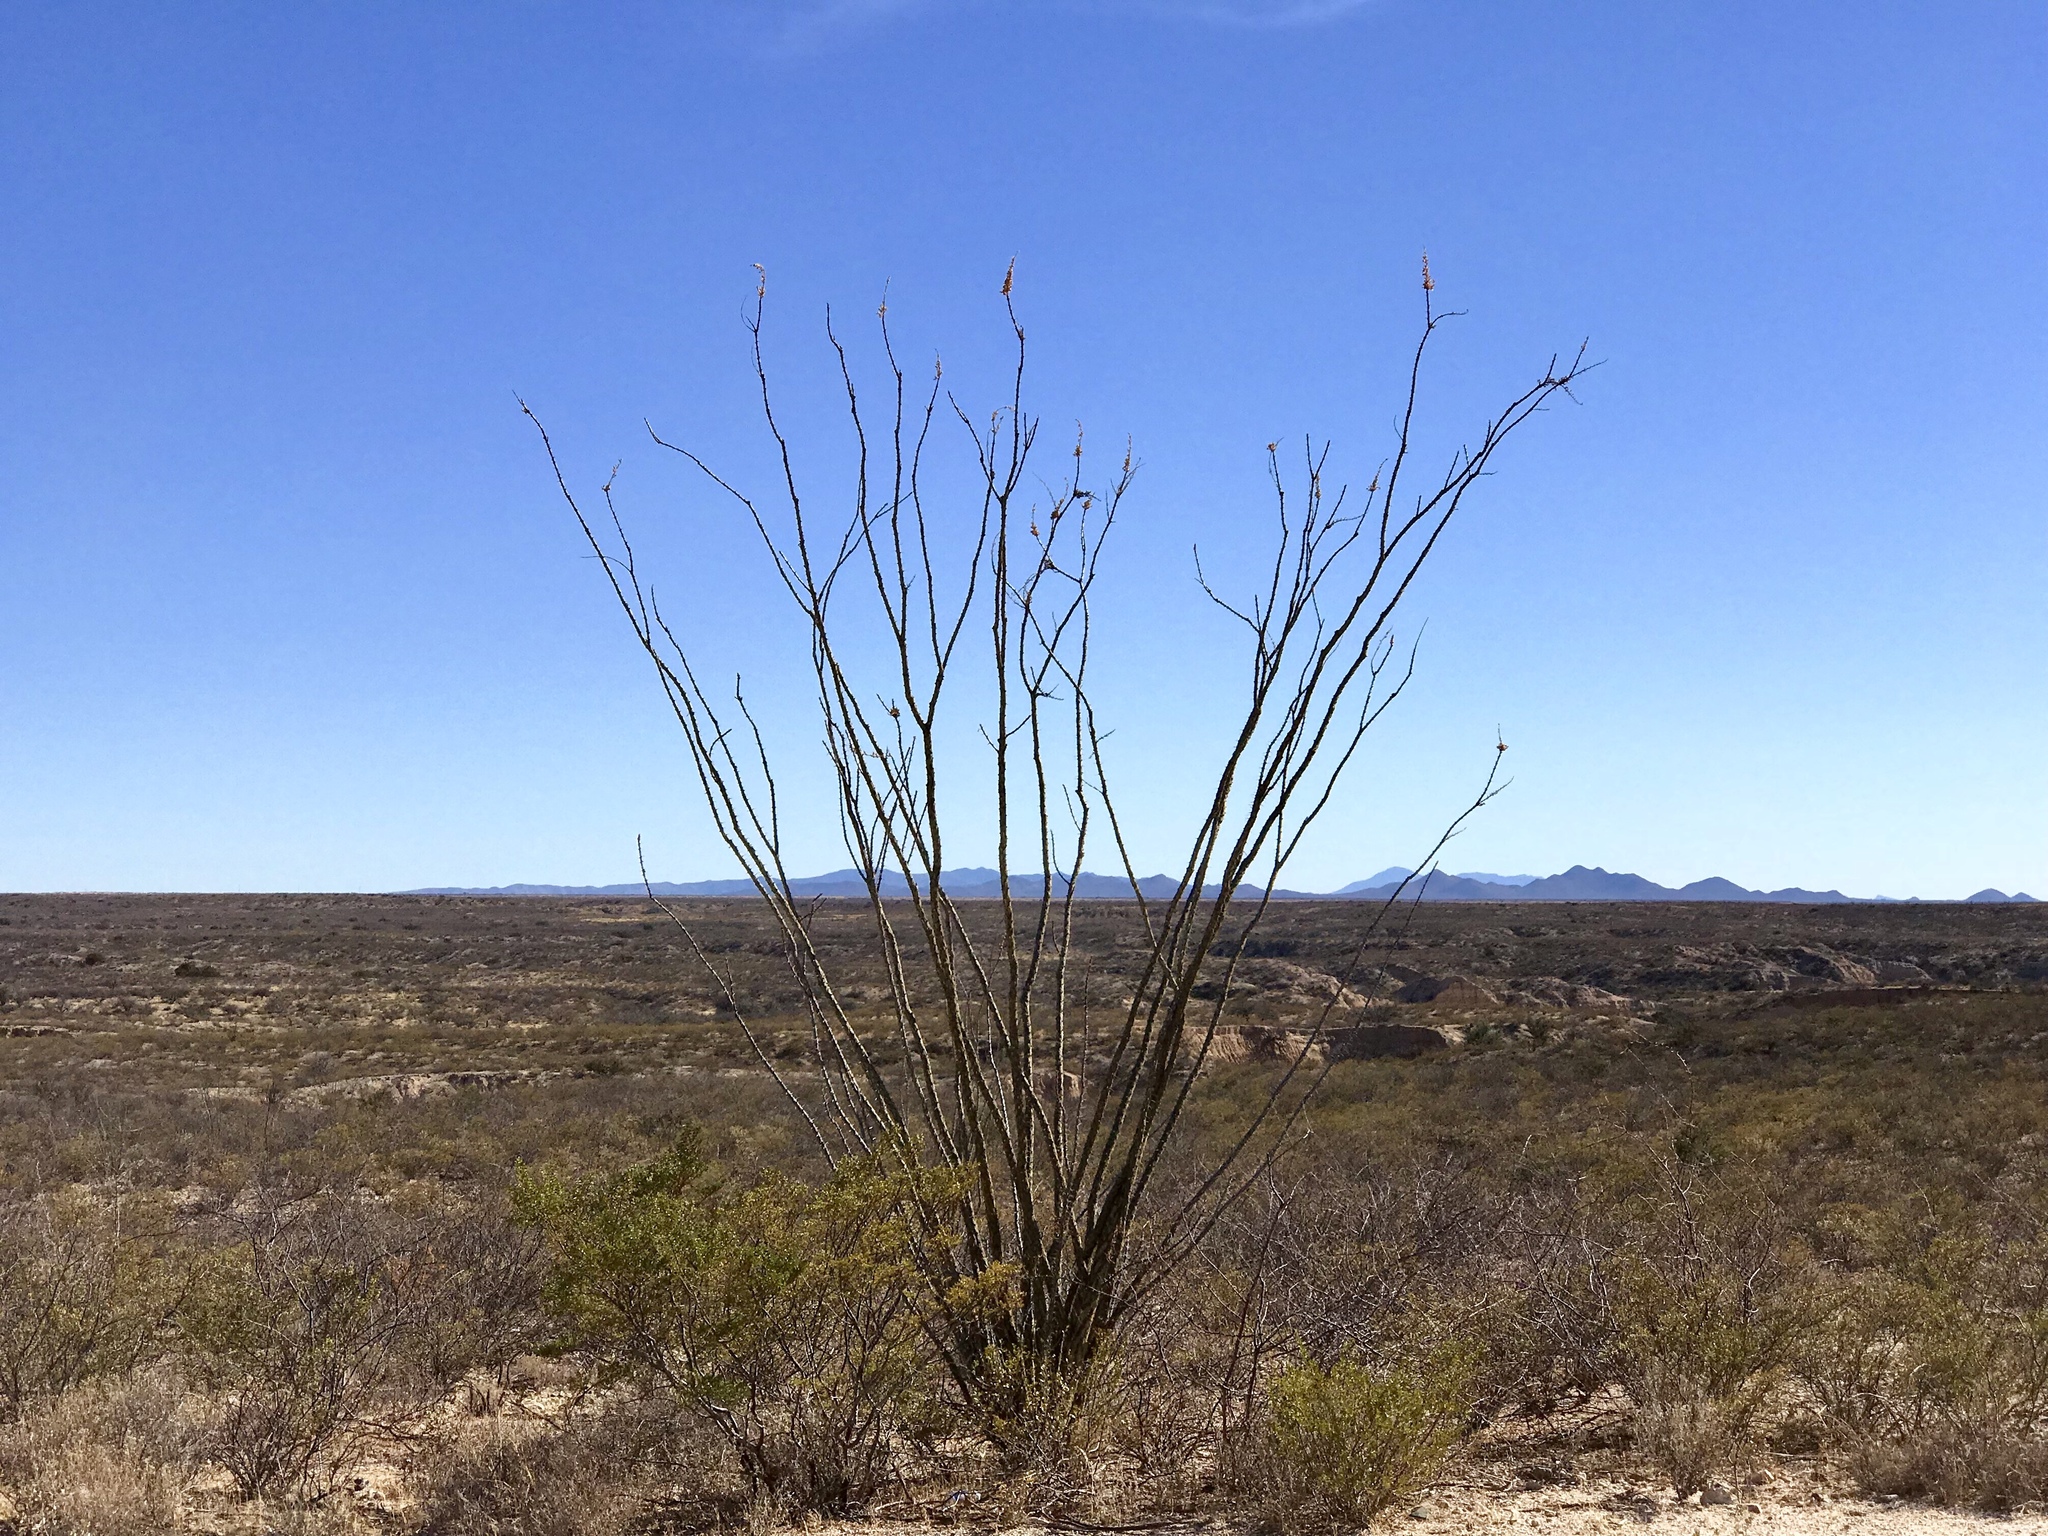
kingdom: Plantae
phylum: Tracheophyta
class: Magnoliopsida
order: Ericales
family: Fouquieriaceae
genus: Fouquieria
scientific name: Fouquieria splendens
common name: Vine-cactus
